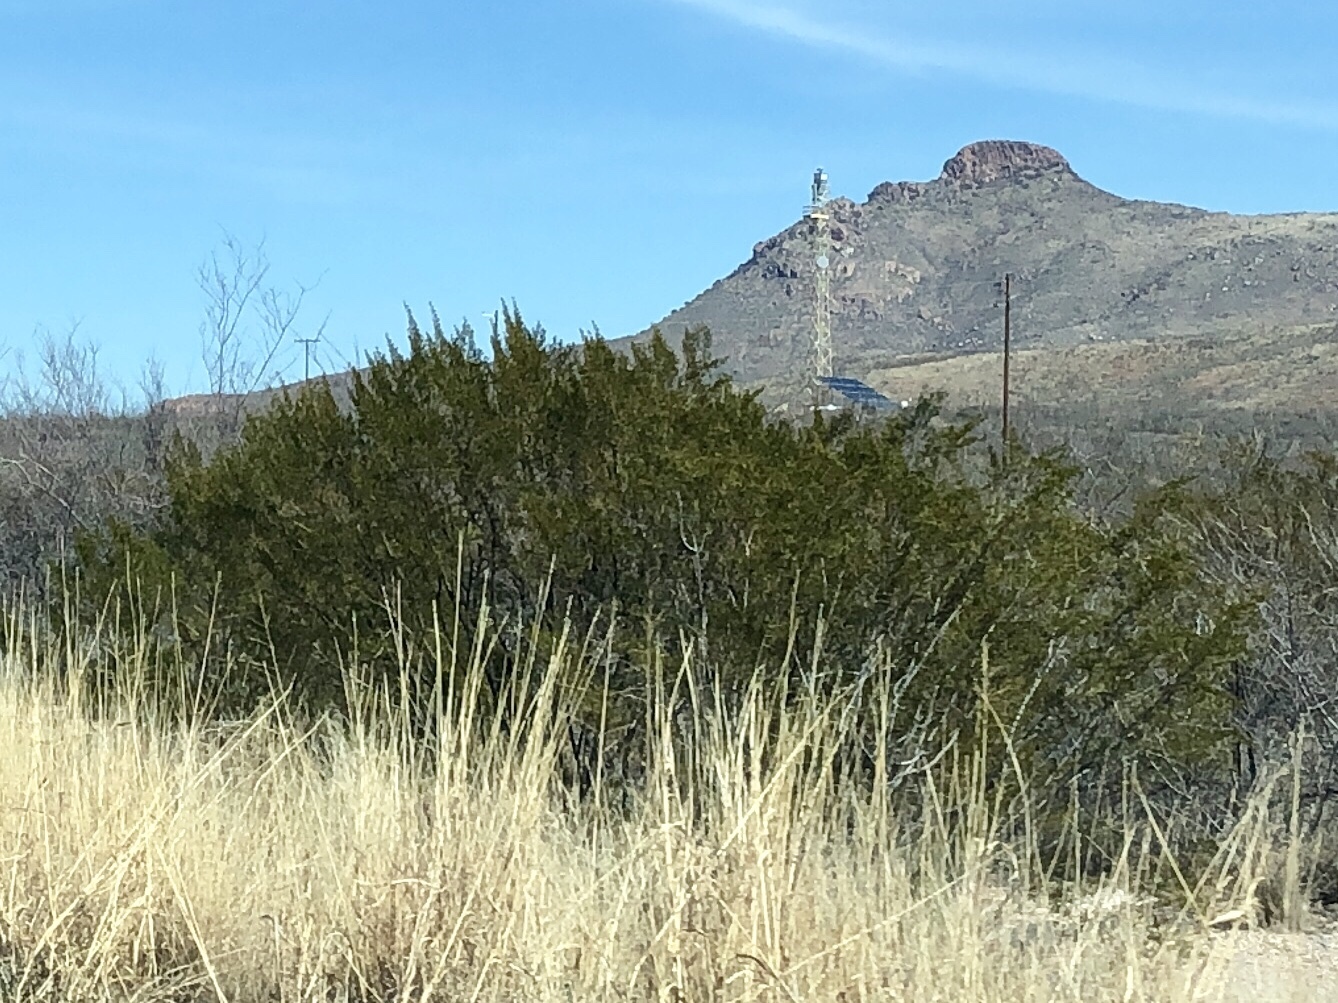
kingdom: Plantae
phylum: Tracheophyta
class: Magnoliopsida
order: Zygophyllales
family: Zygophyllaceae
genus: Larrea
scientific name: Larrea tridentata
